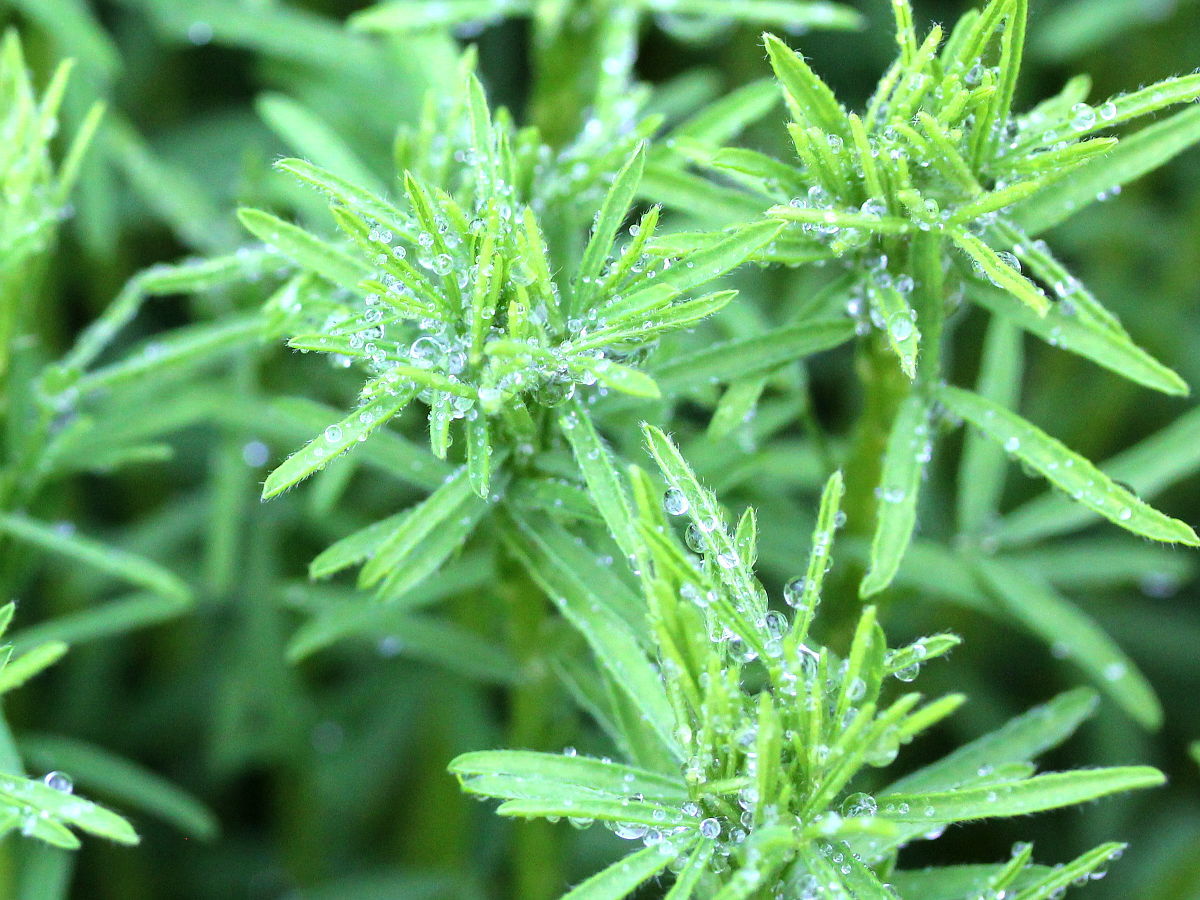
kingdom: Plantae
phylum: Tracheophyta
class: Magnoliopsida
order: Fabales
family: Fabaceae
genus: Dalea
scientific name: Dalea purpurea
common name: Purple prairie-clover
